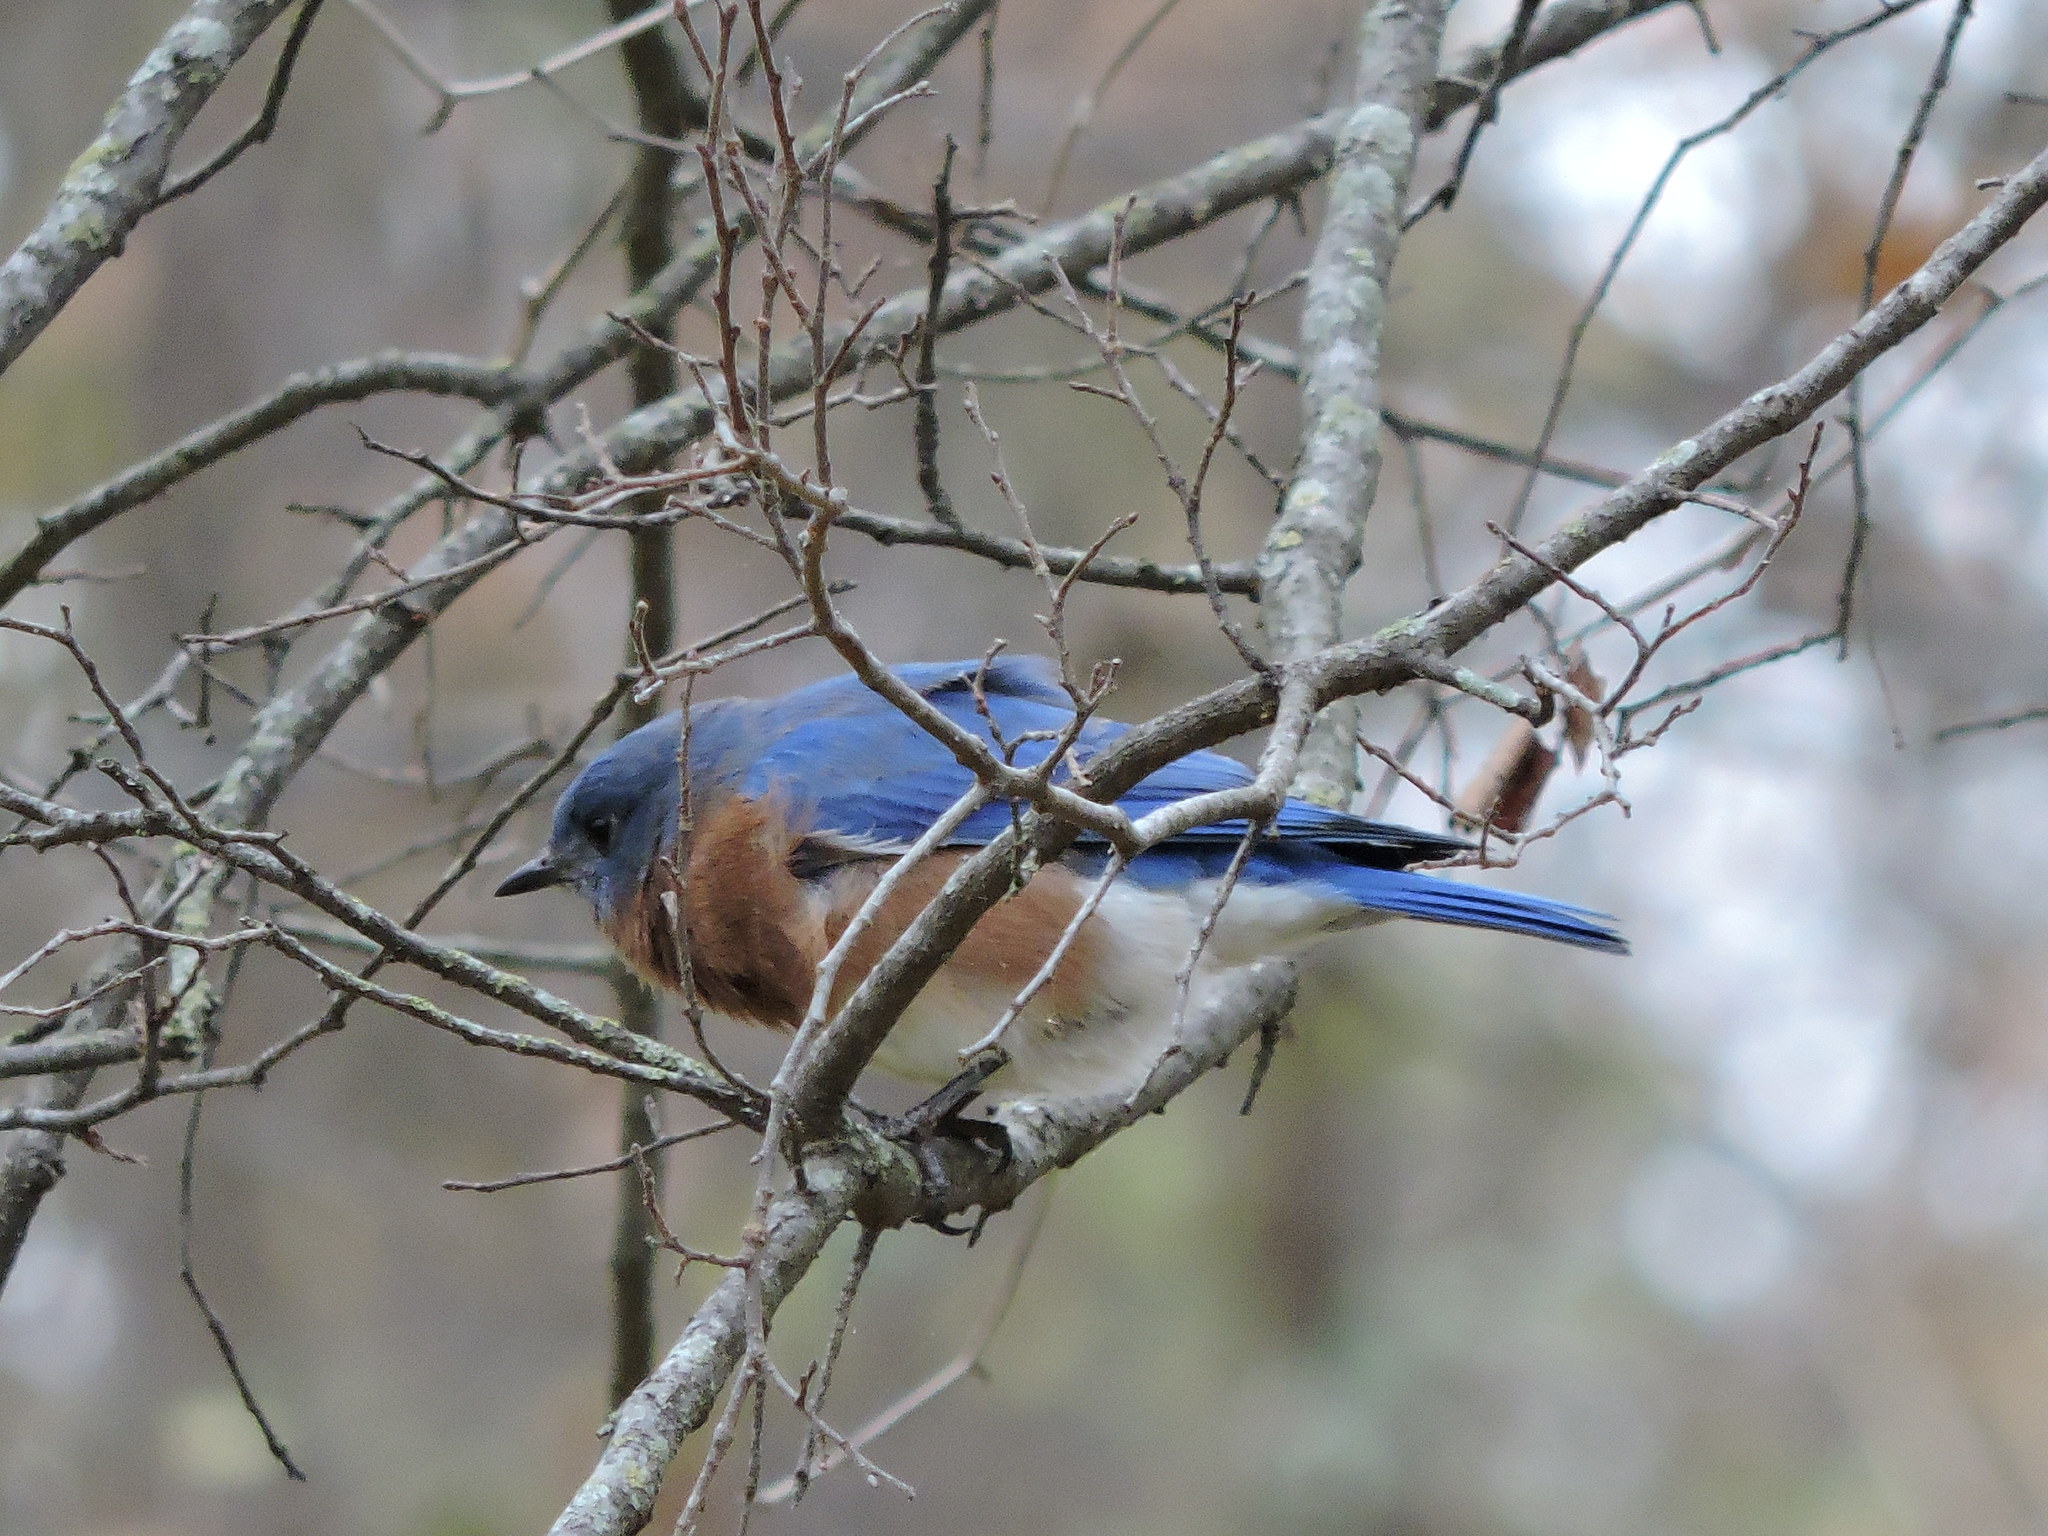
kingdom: Animalia
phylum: Chordata
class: Aves
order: Passeriformes
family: Turdidae
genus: Sialia
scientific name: Sialia sialis
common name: Eastern bluebird
